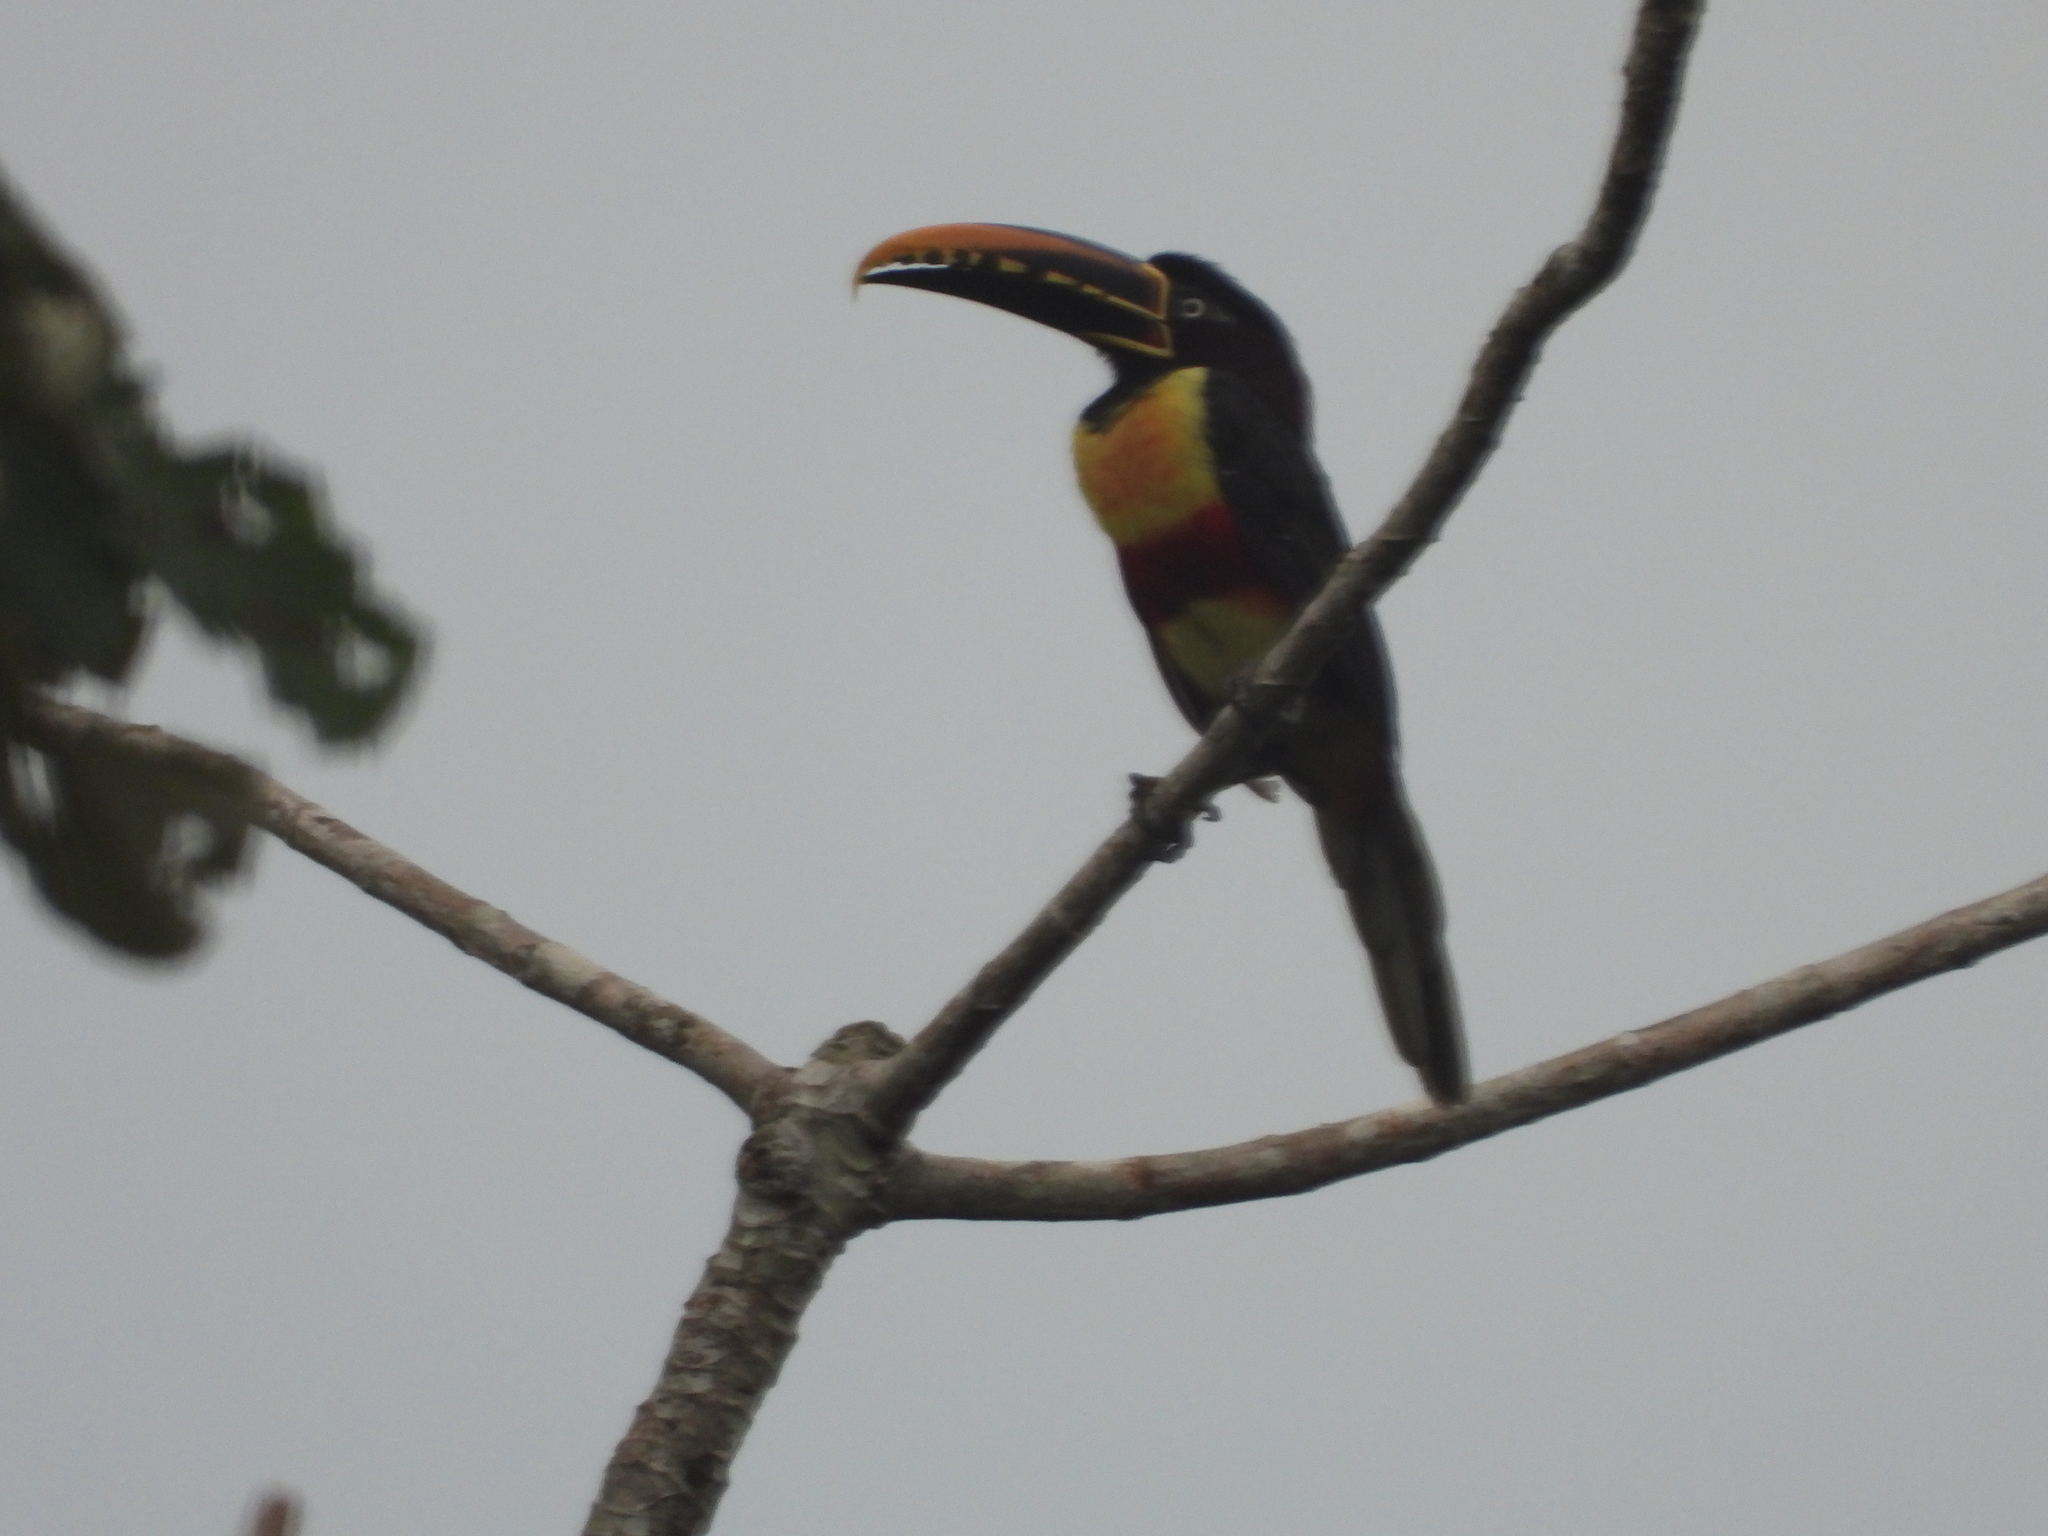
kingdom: Animalia
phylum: Chordata
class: Aves
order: Piciformes
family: Ramphastidae
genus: Pteroglossus
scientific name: Pteroglossus castanotis
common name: Chestnut-eared aracari
